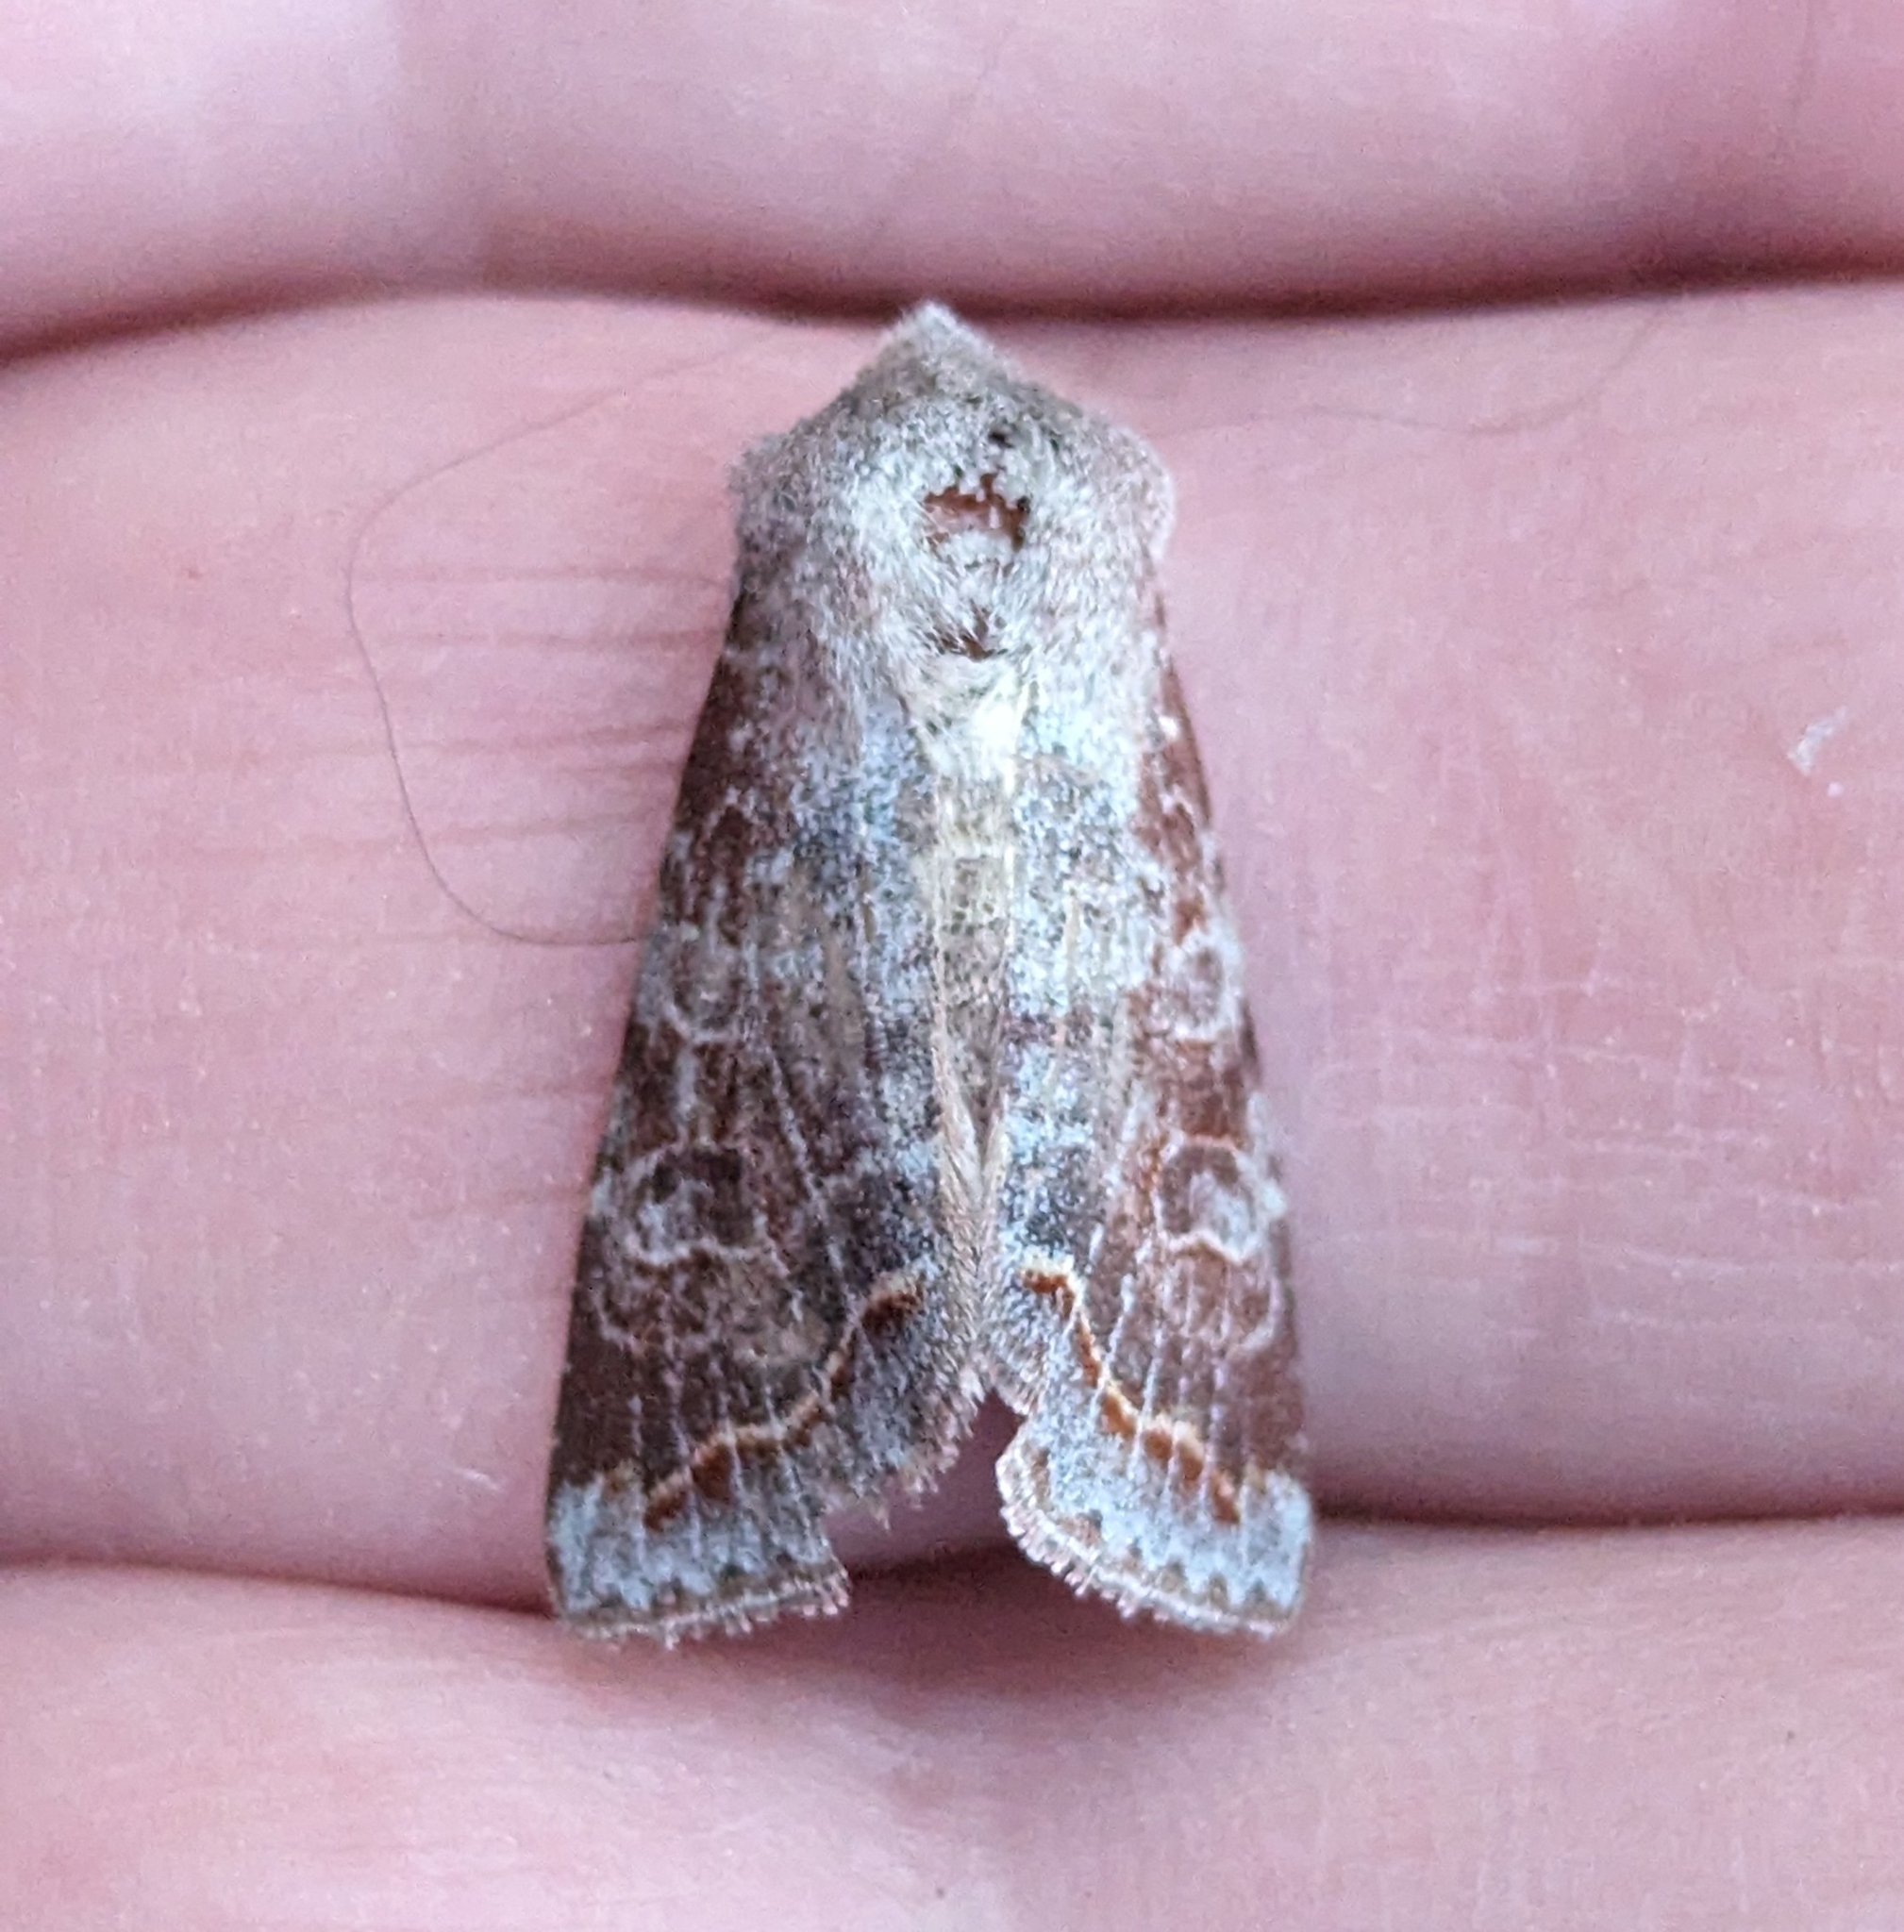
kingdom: Animalia
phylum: Arthropoda
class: Insecta
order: Lepidoptera
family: Noctuidae
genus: Orthosia
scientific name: Orthosia revicta
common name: Rusty whitesided caterpillar
